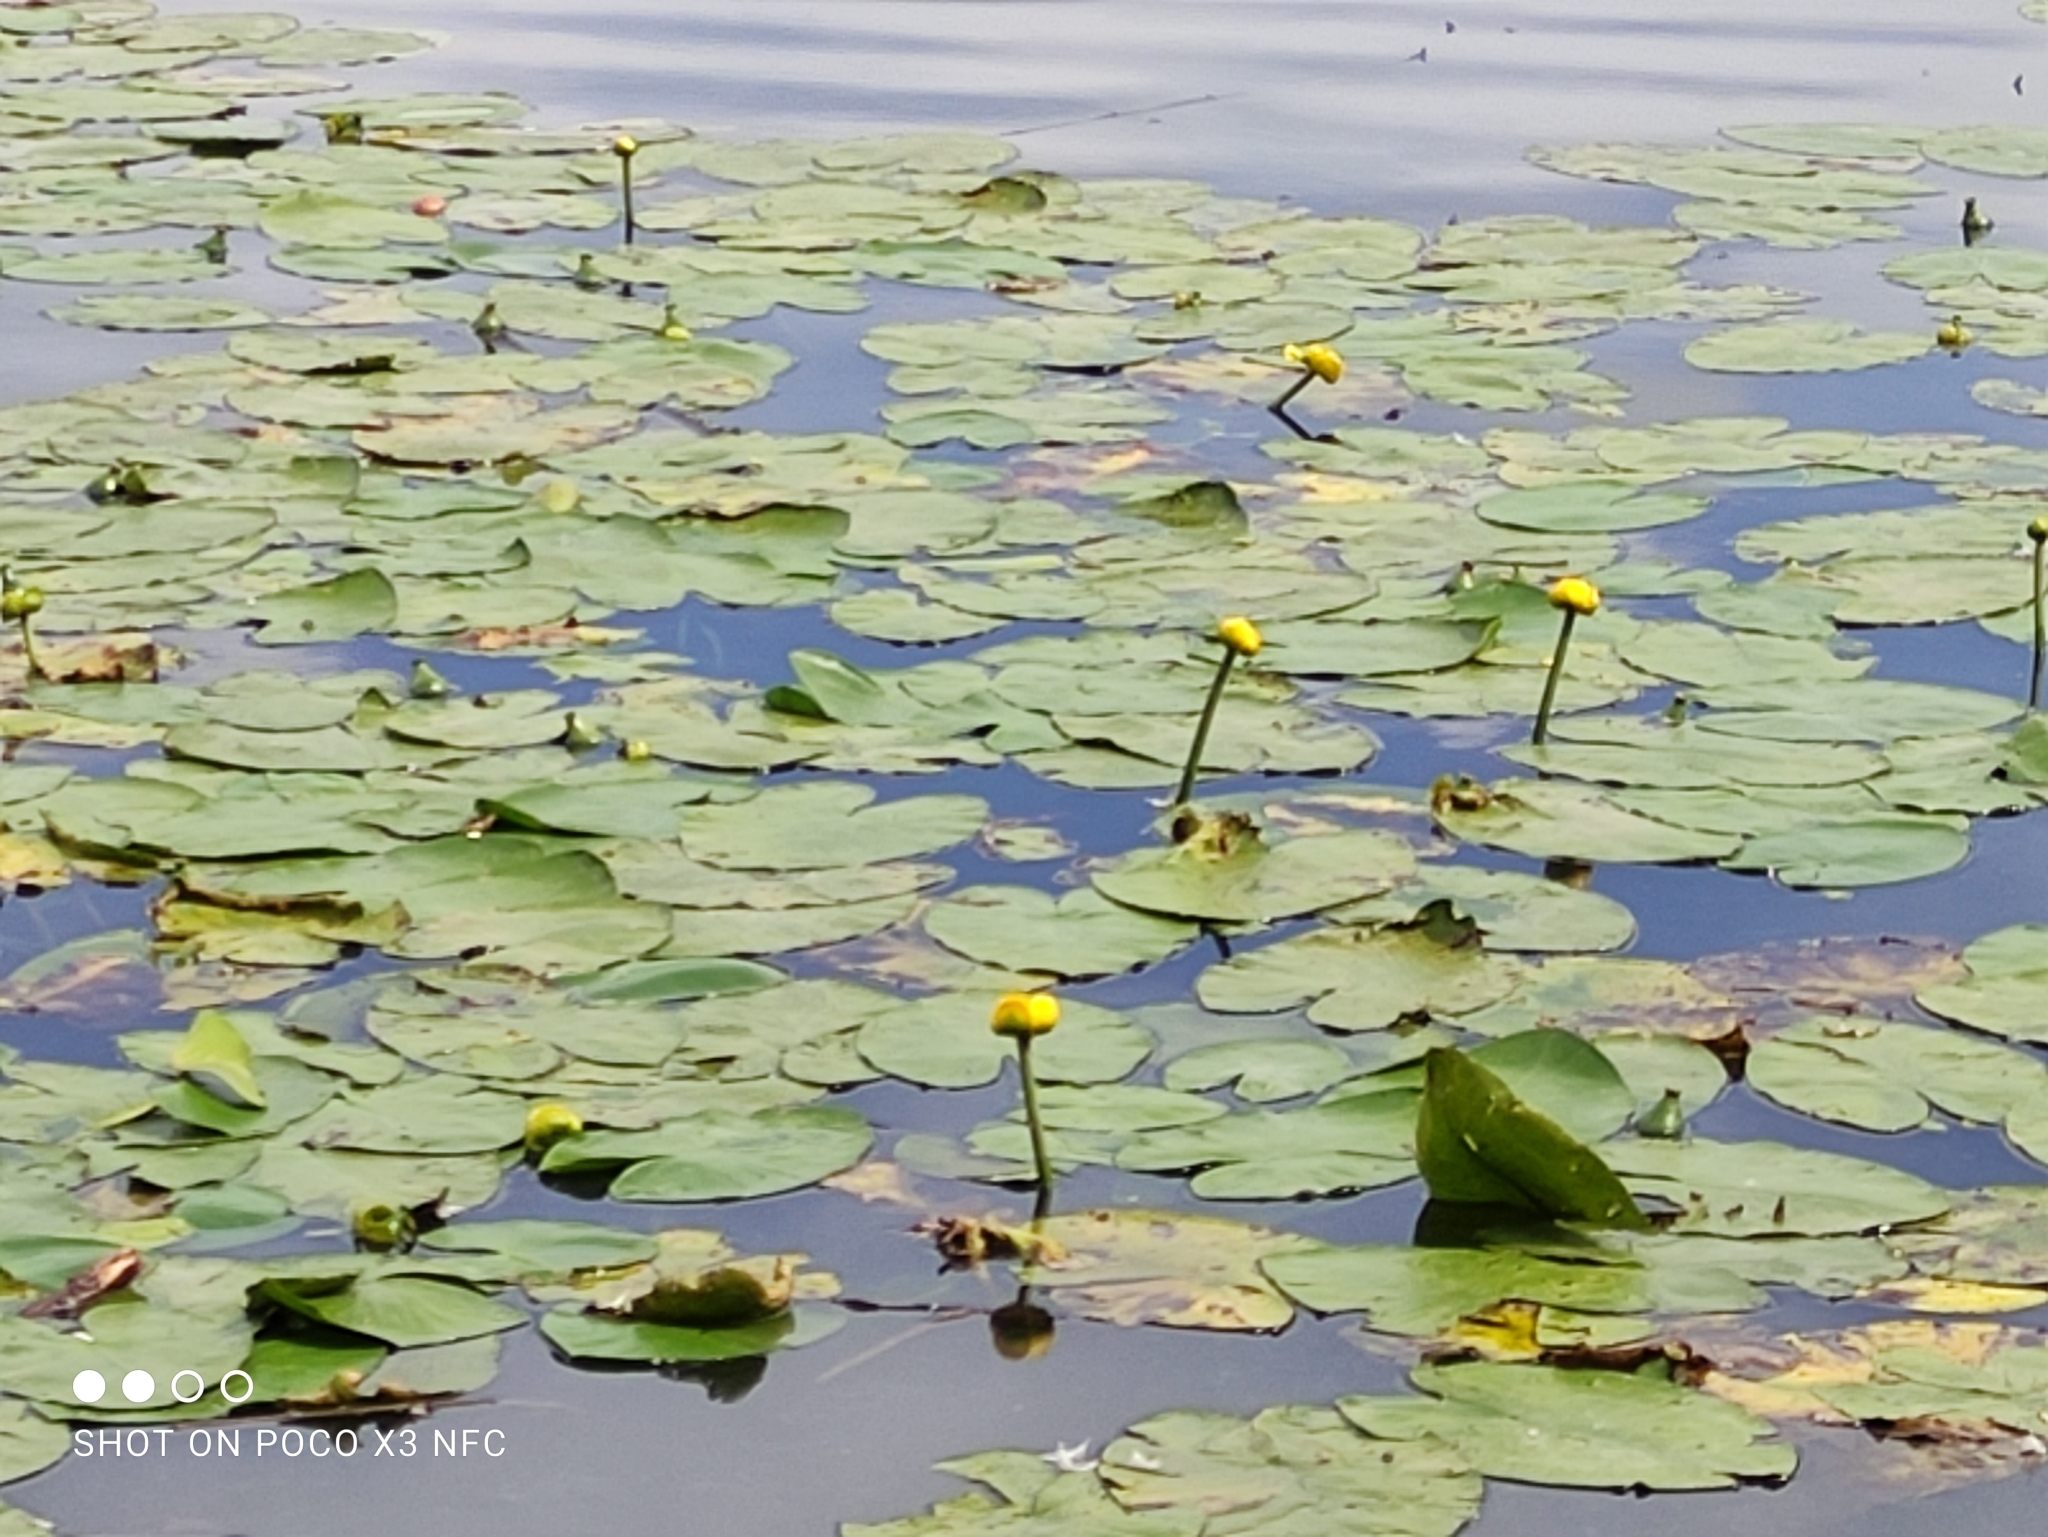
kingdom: Plantae
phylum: Tracheophyta
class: Magnoliopsida
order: Nymphaeales
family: Nymphaeaceae
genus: Nuphar
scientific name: Nuphar lutea
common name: Yellow water-lily
